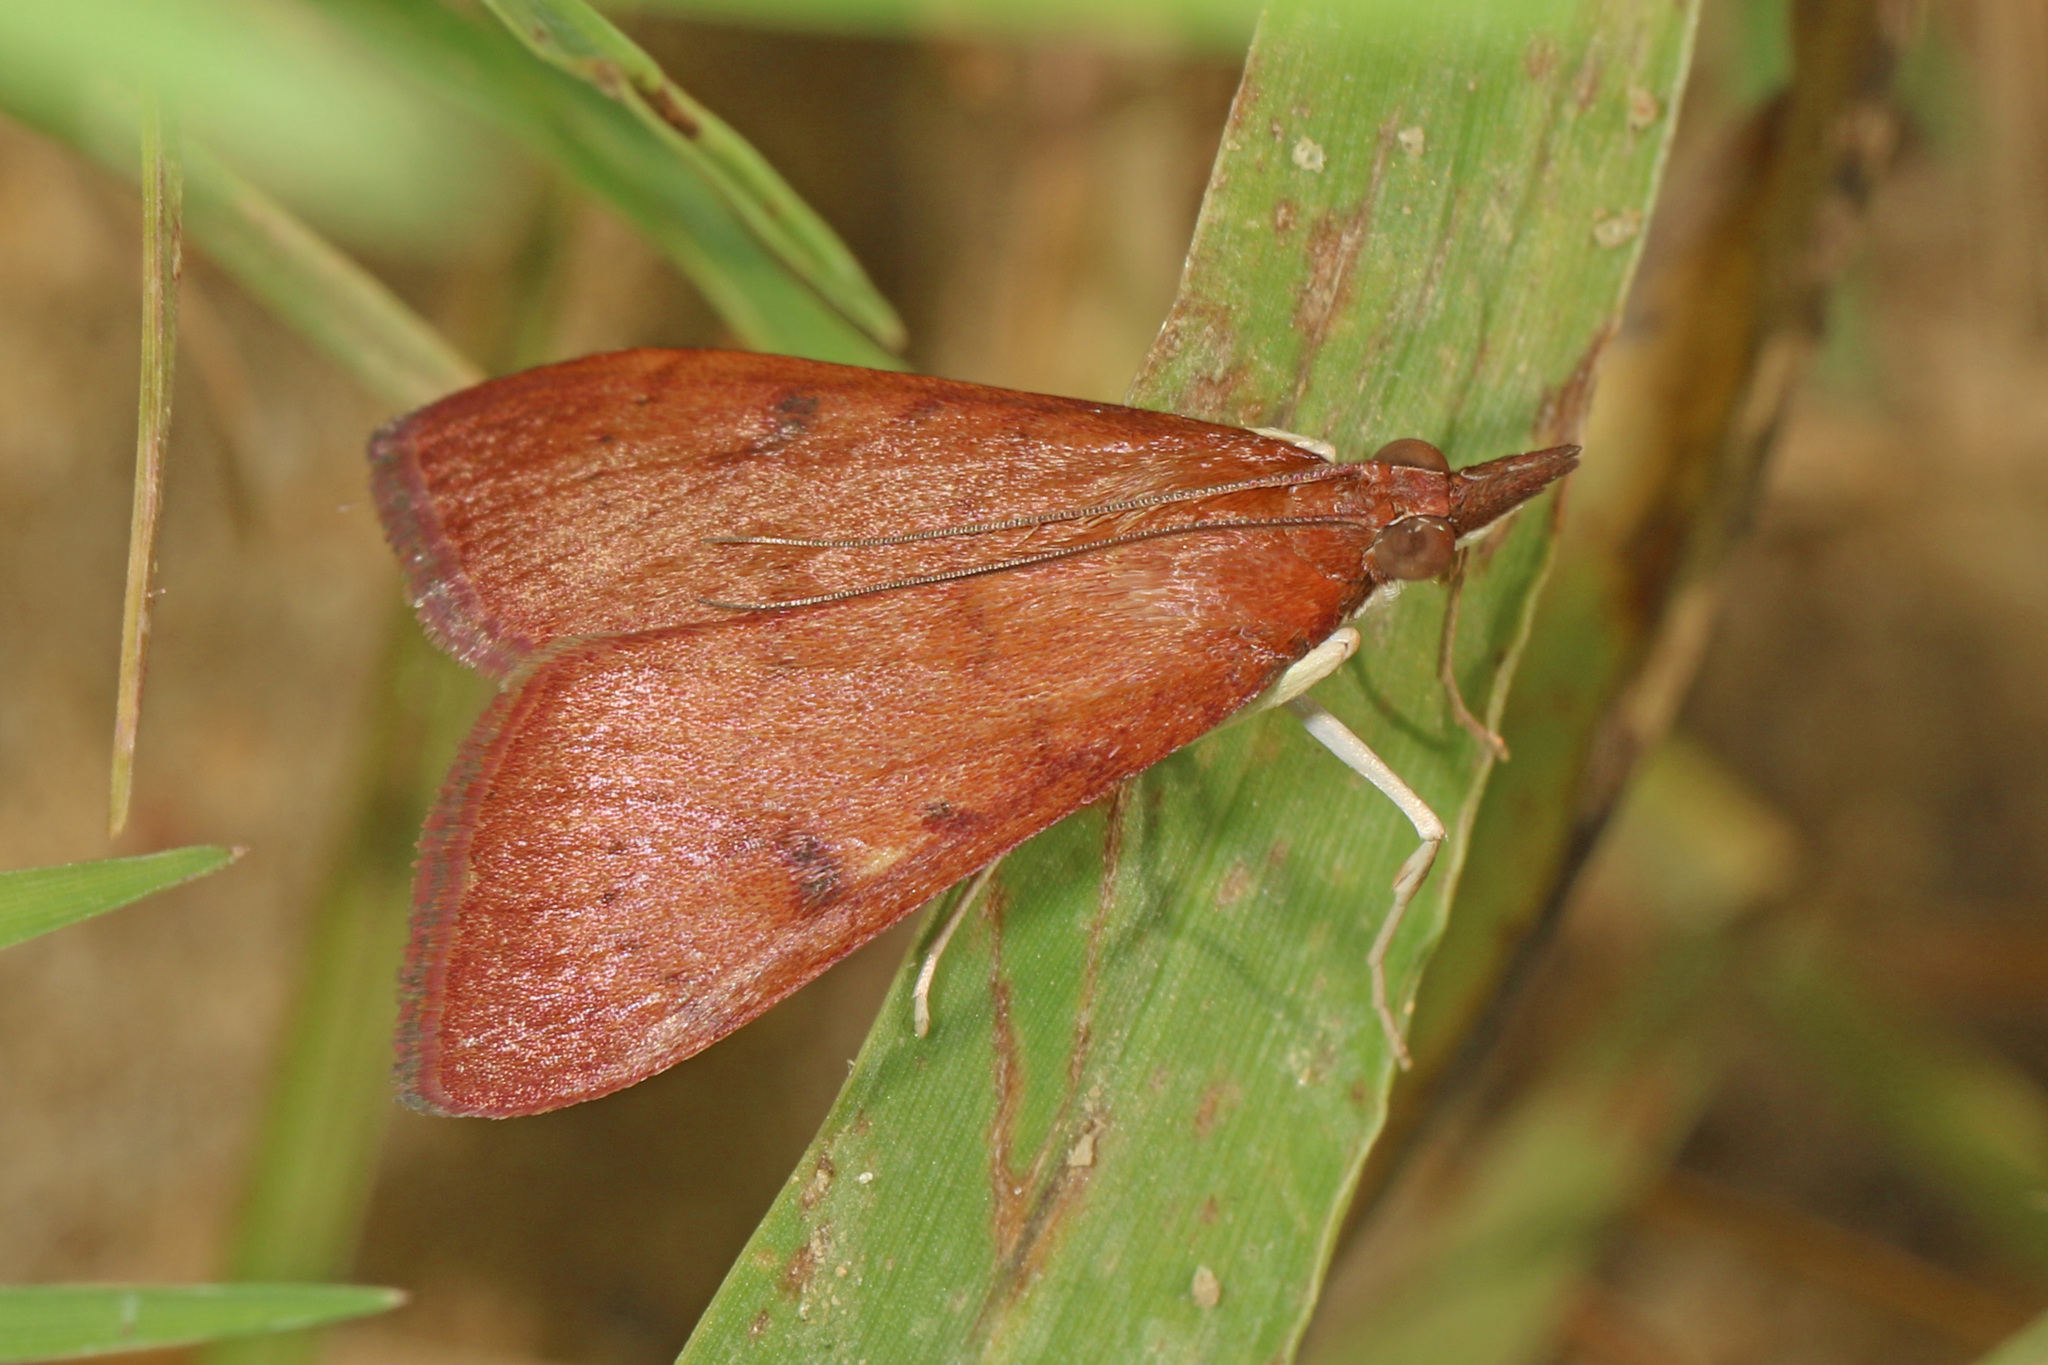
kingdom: Animalia
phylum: Arthropoda
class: Insecta
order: Lepidoptera
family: Crambidae
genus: Uresiphita
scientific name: Uresiphita reversalis
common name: Genista broom moth
